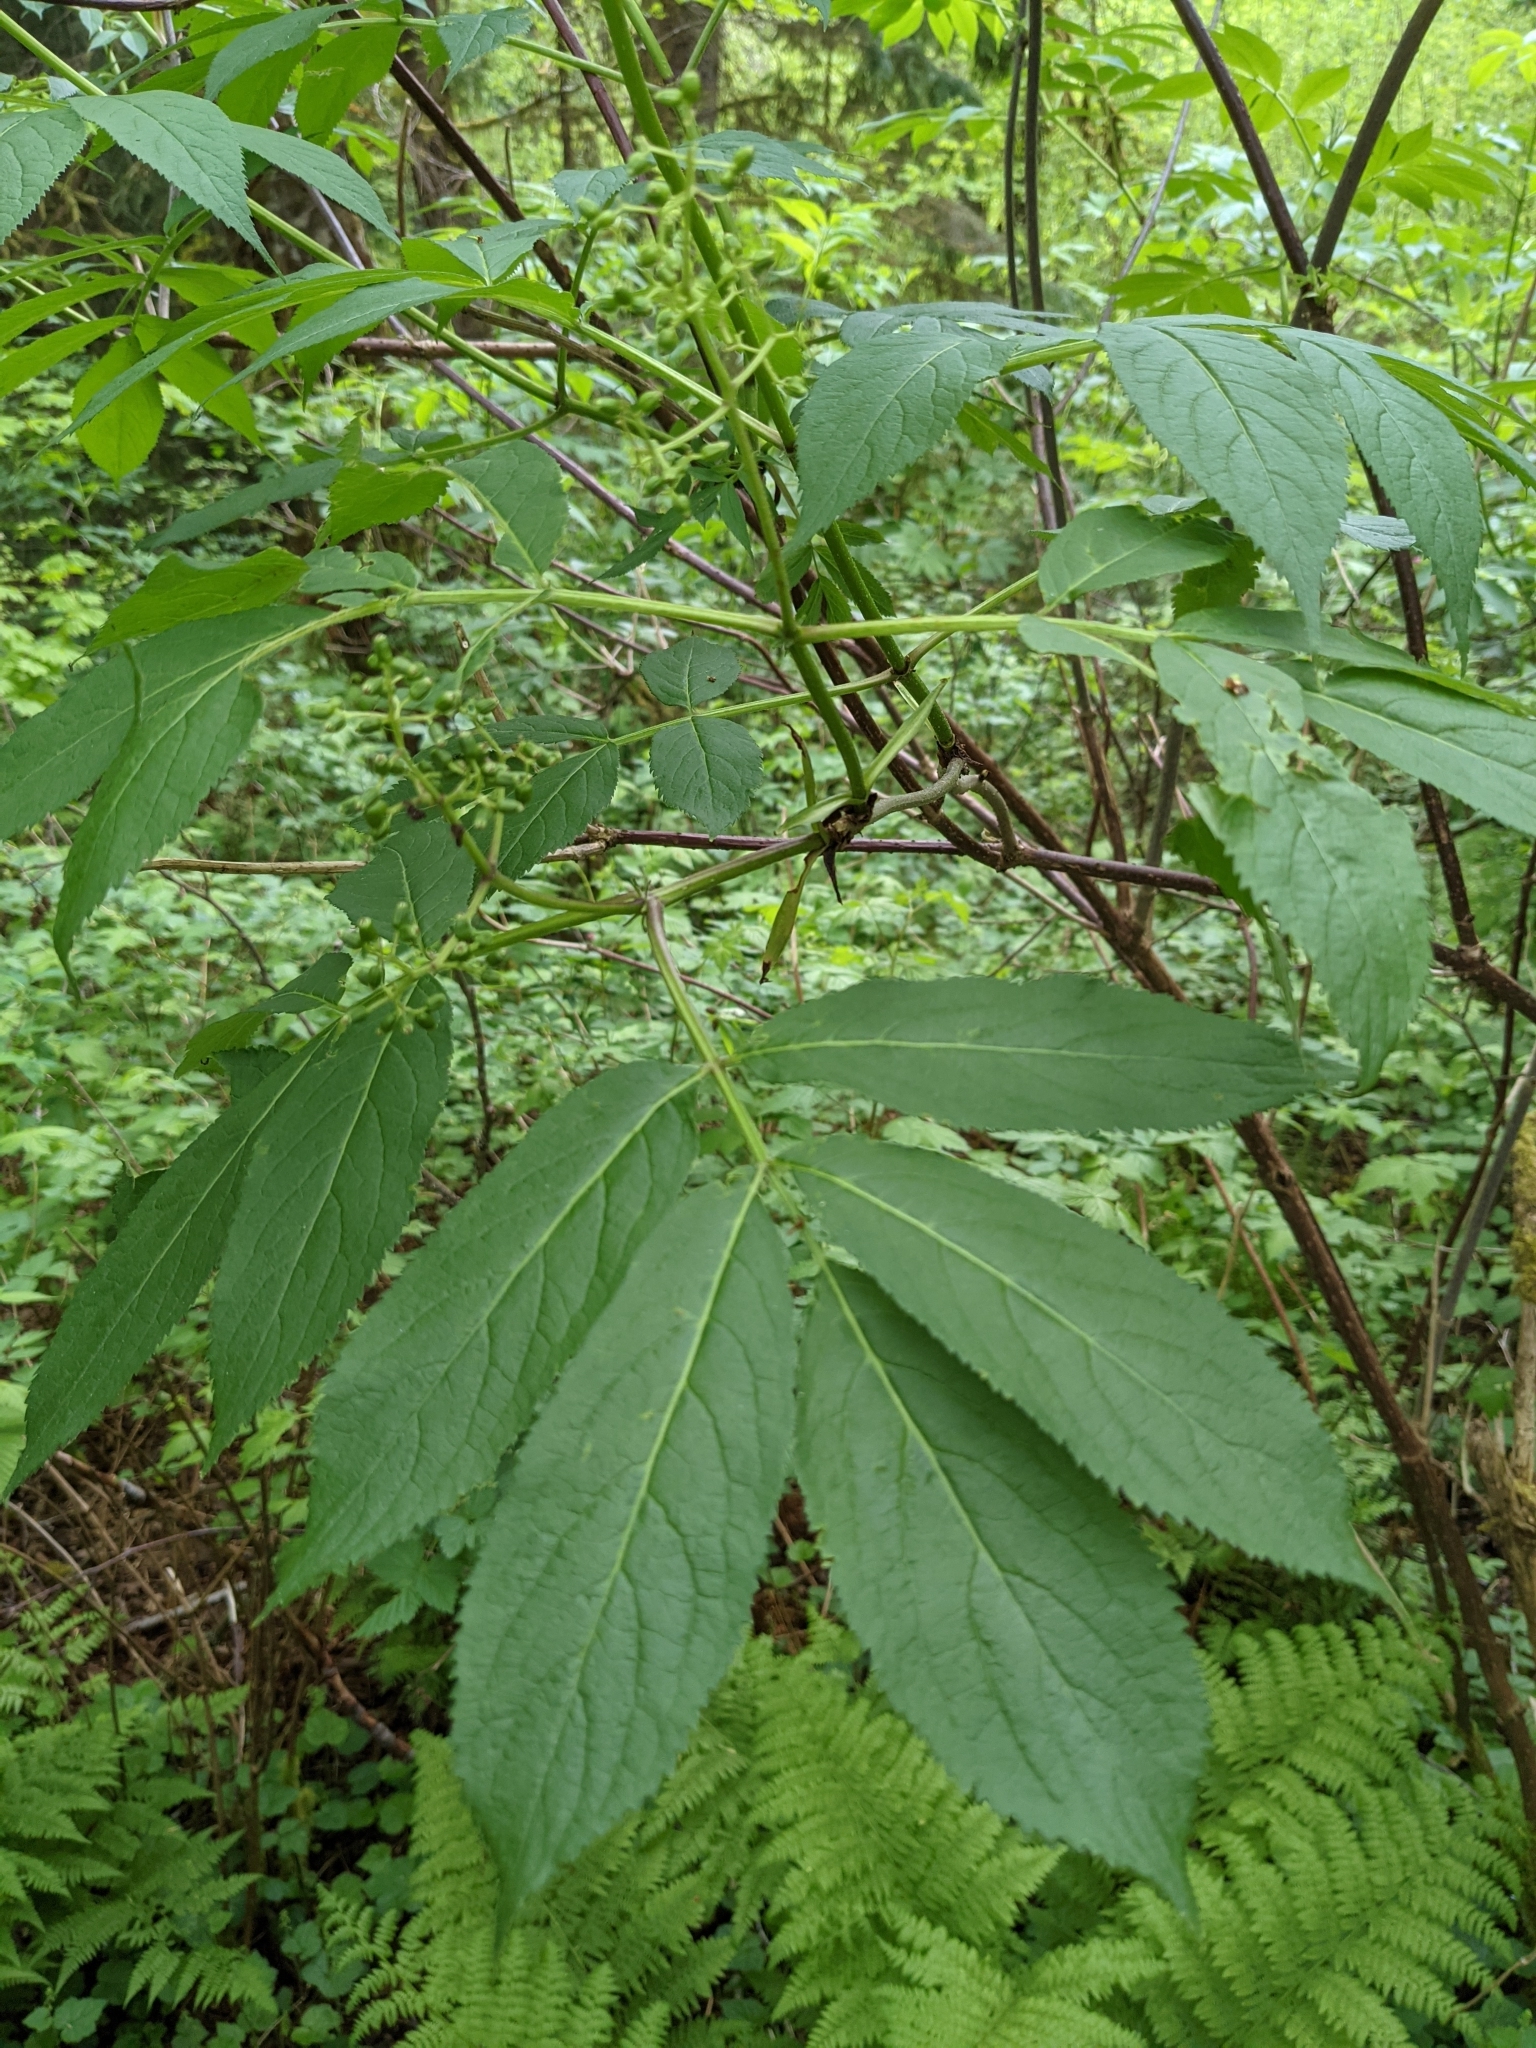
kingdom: Plantae
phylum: Tracheophyta
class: Magnoliopsida
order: Dipsacales
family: Viburnaceae
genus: Sambucus
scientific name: Sambucus racemosa
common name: Red-berried elder
